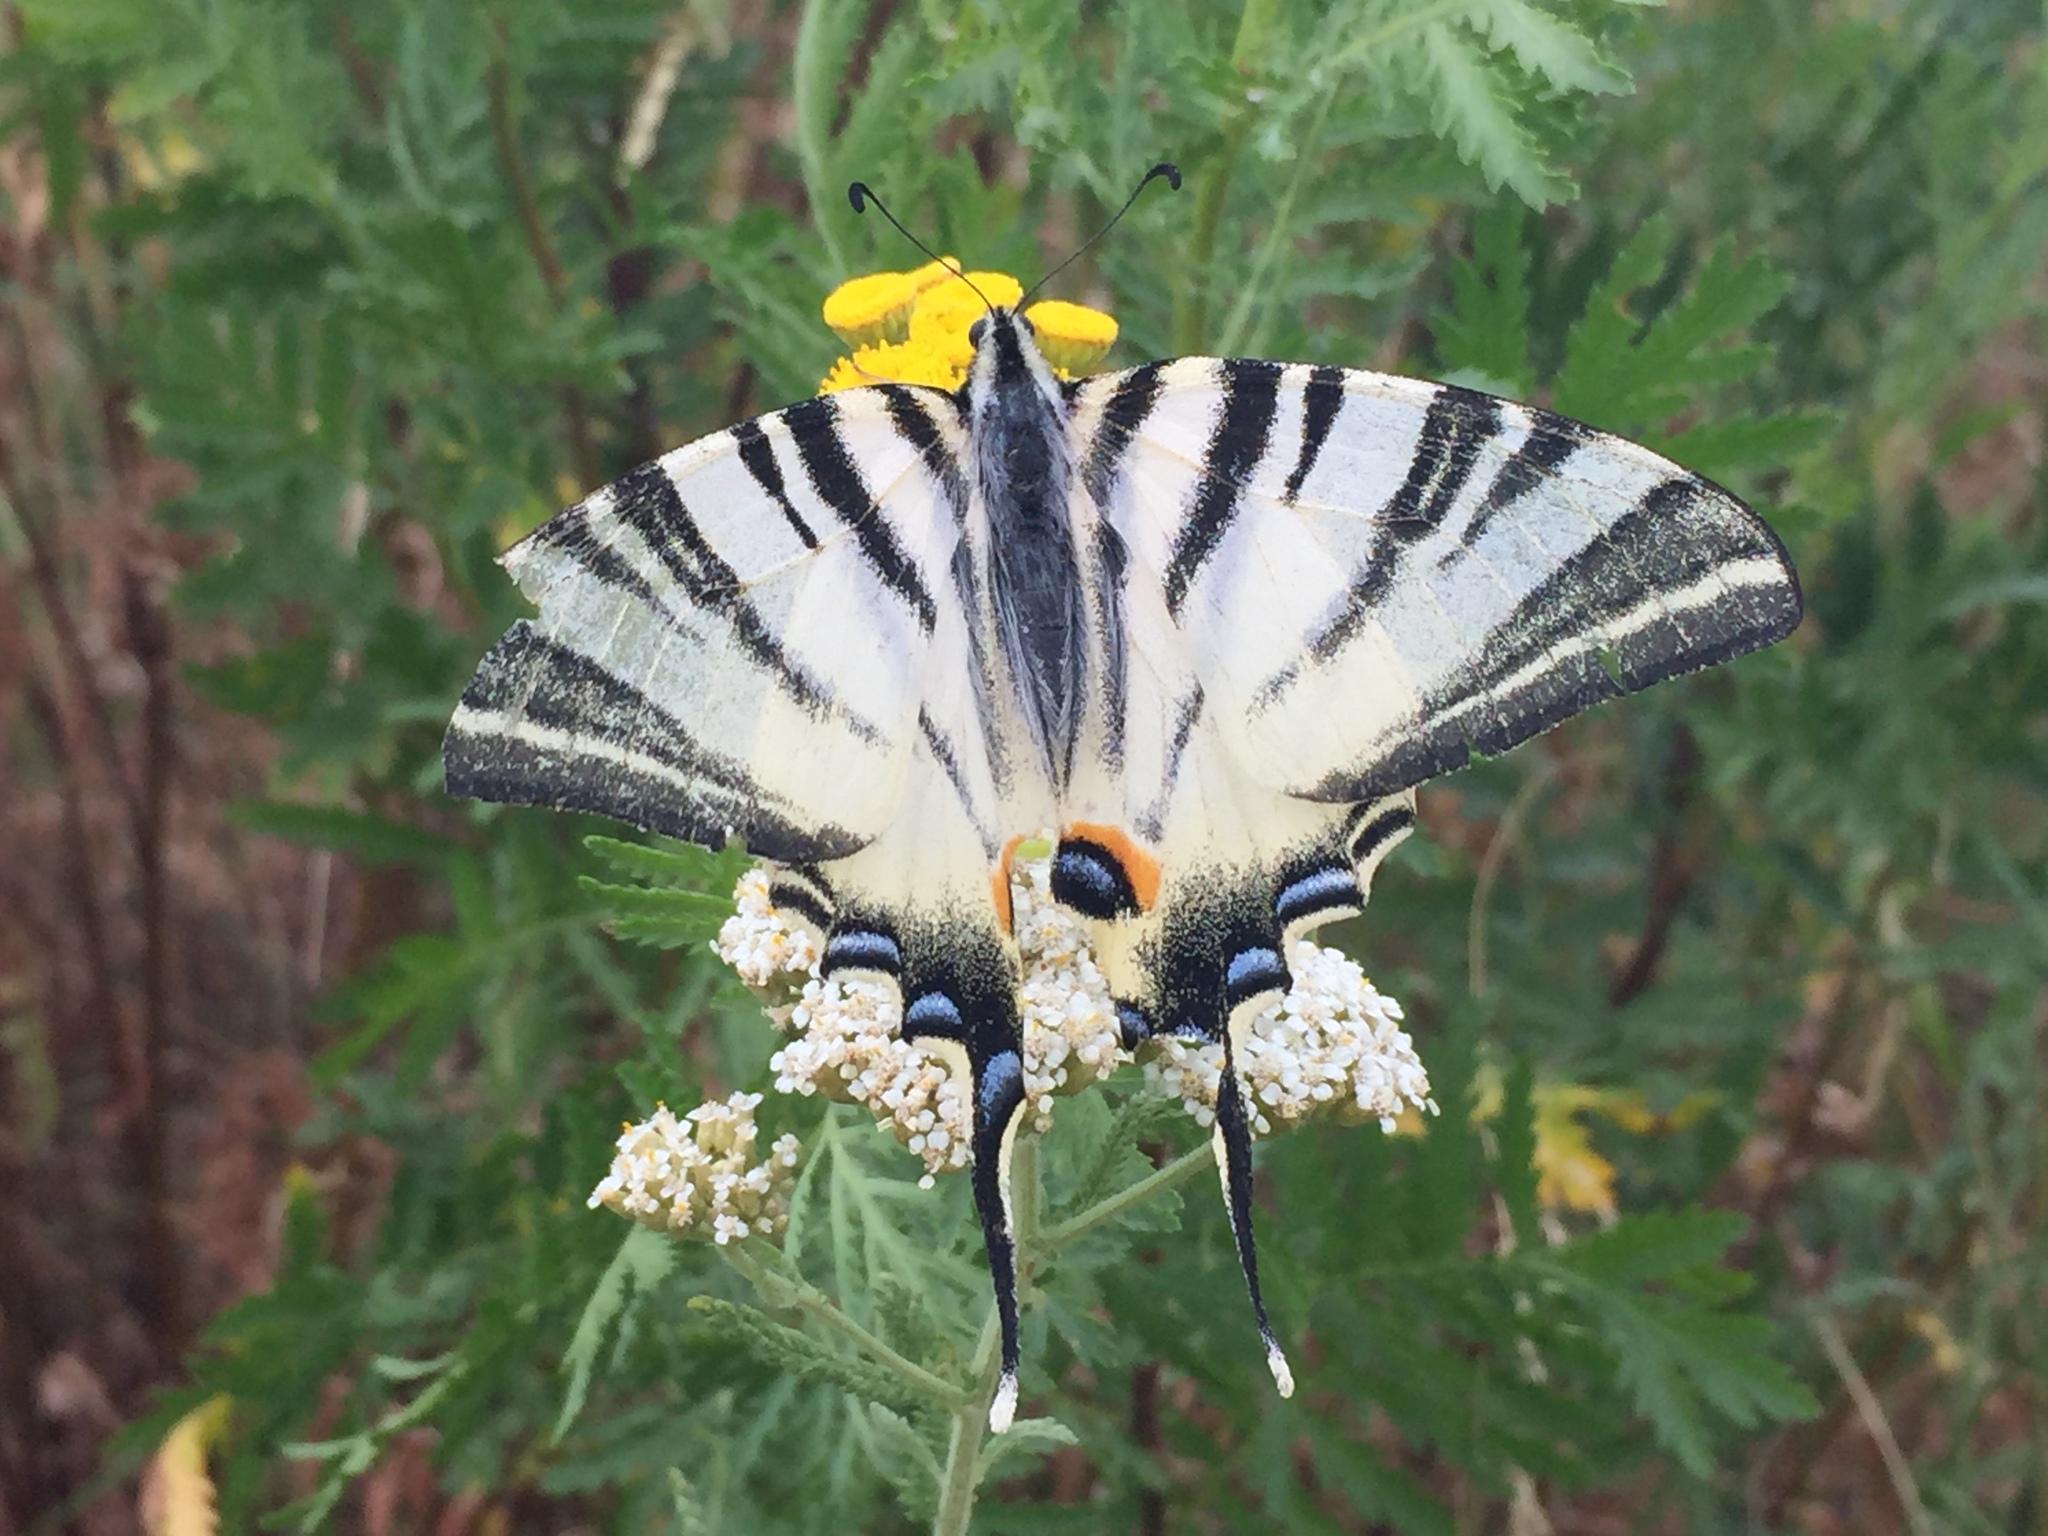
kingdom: Animalia
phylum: Arthropoda
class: Insecta
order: Lepidoptera
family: Papilionidae
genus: Iphiclides
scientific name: Iphiclides podalirius
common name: Scarce swallowtail
